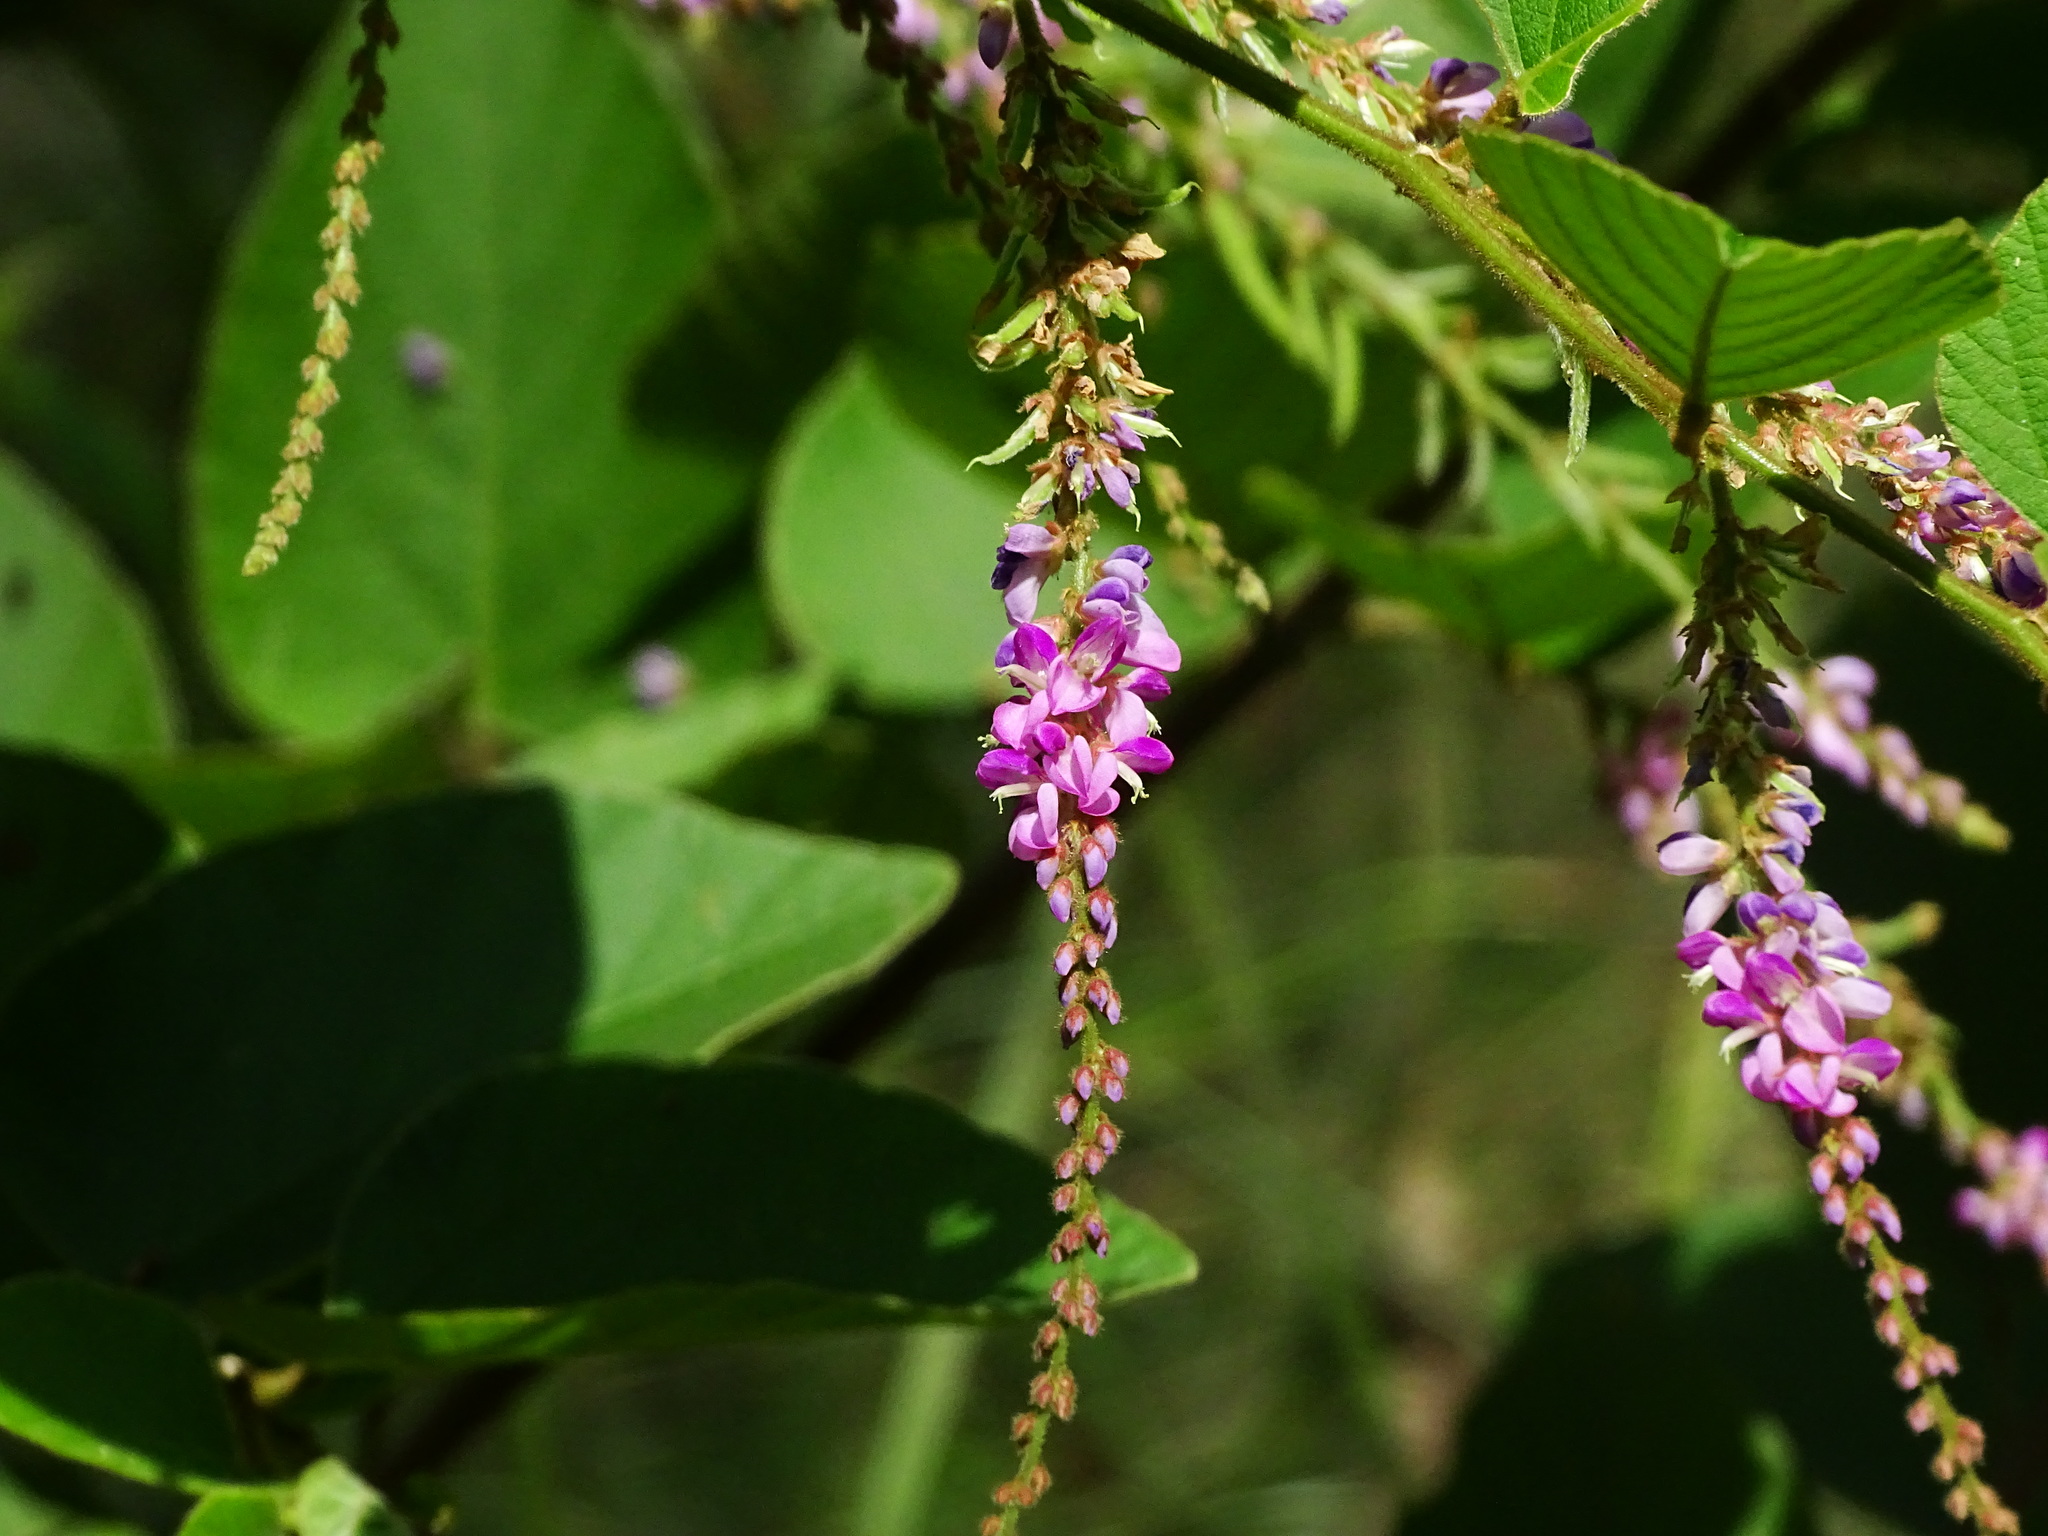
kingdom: Plantae
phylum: Tracheophyta
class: Magnoliopsida
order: Fabales
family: Fabaceae
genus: Polhillides
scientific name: Polhillides velutina
